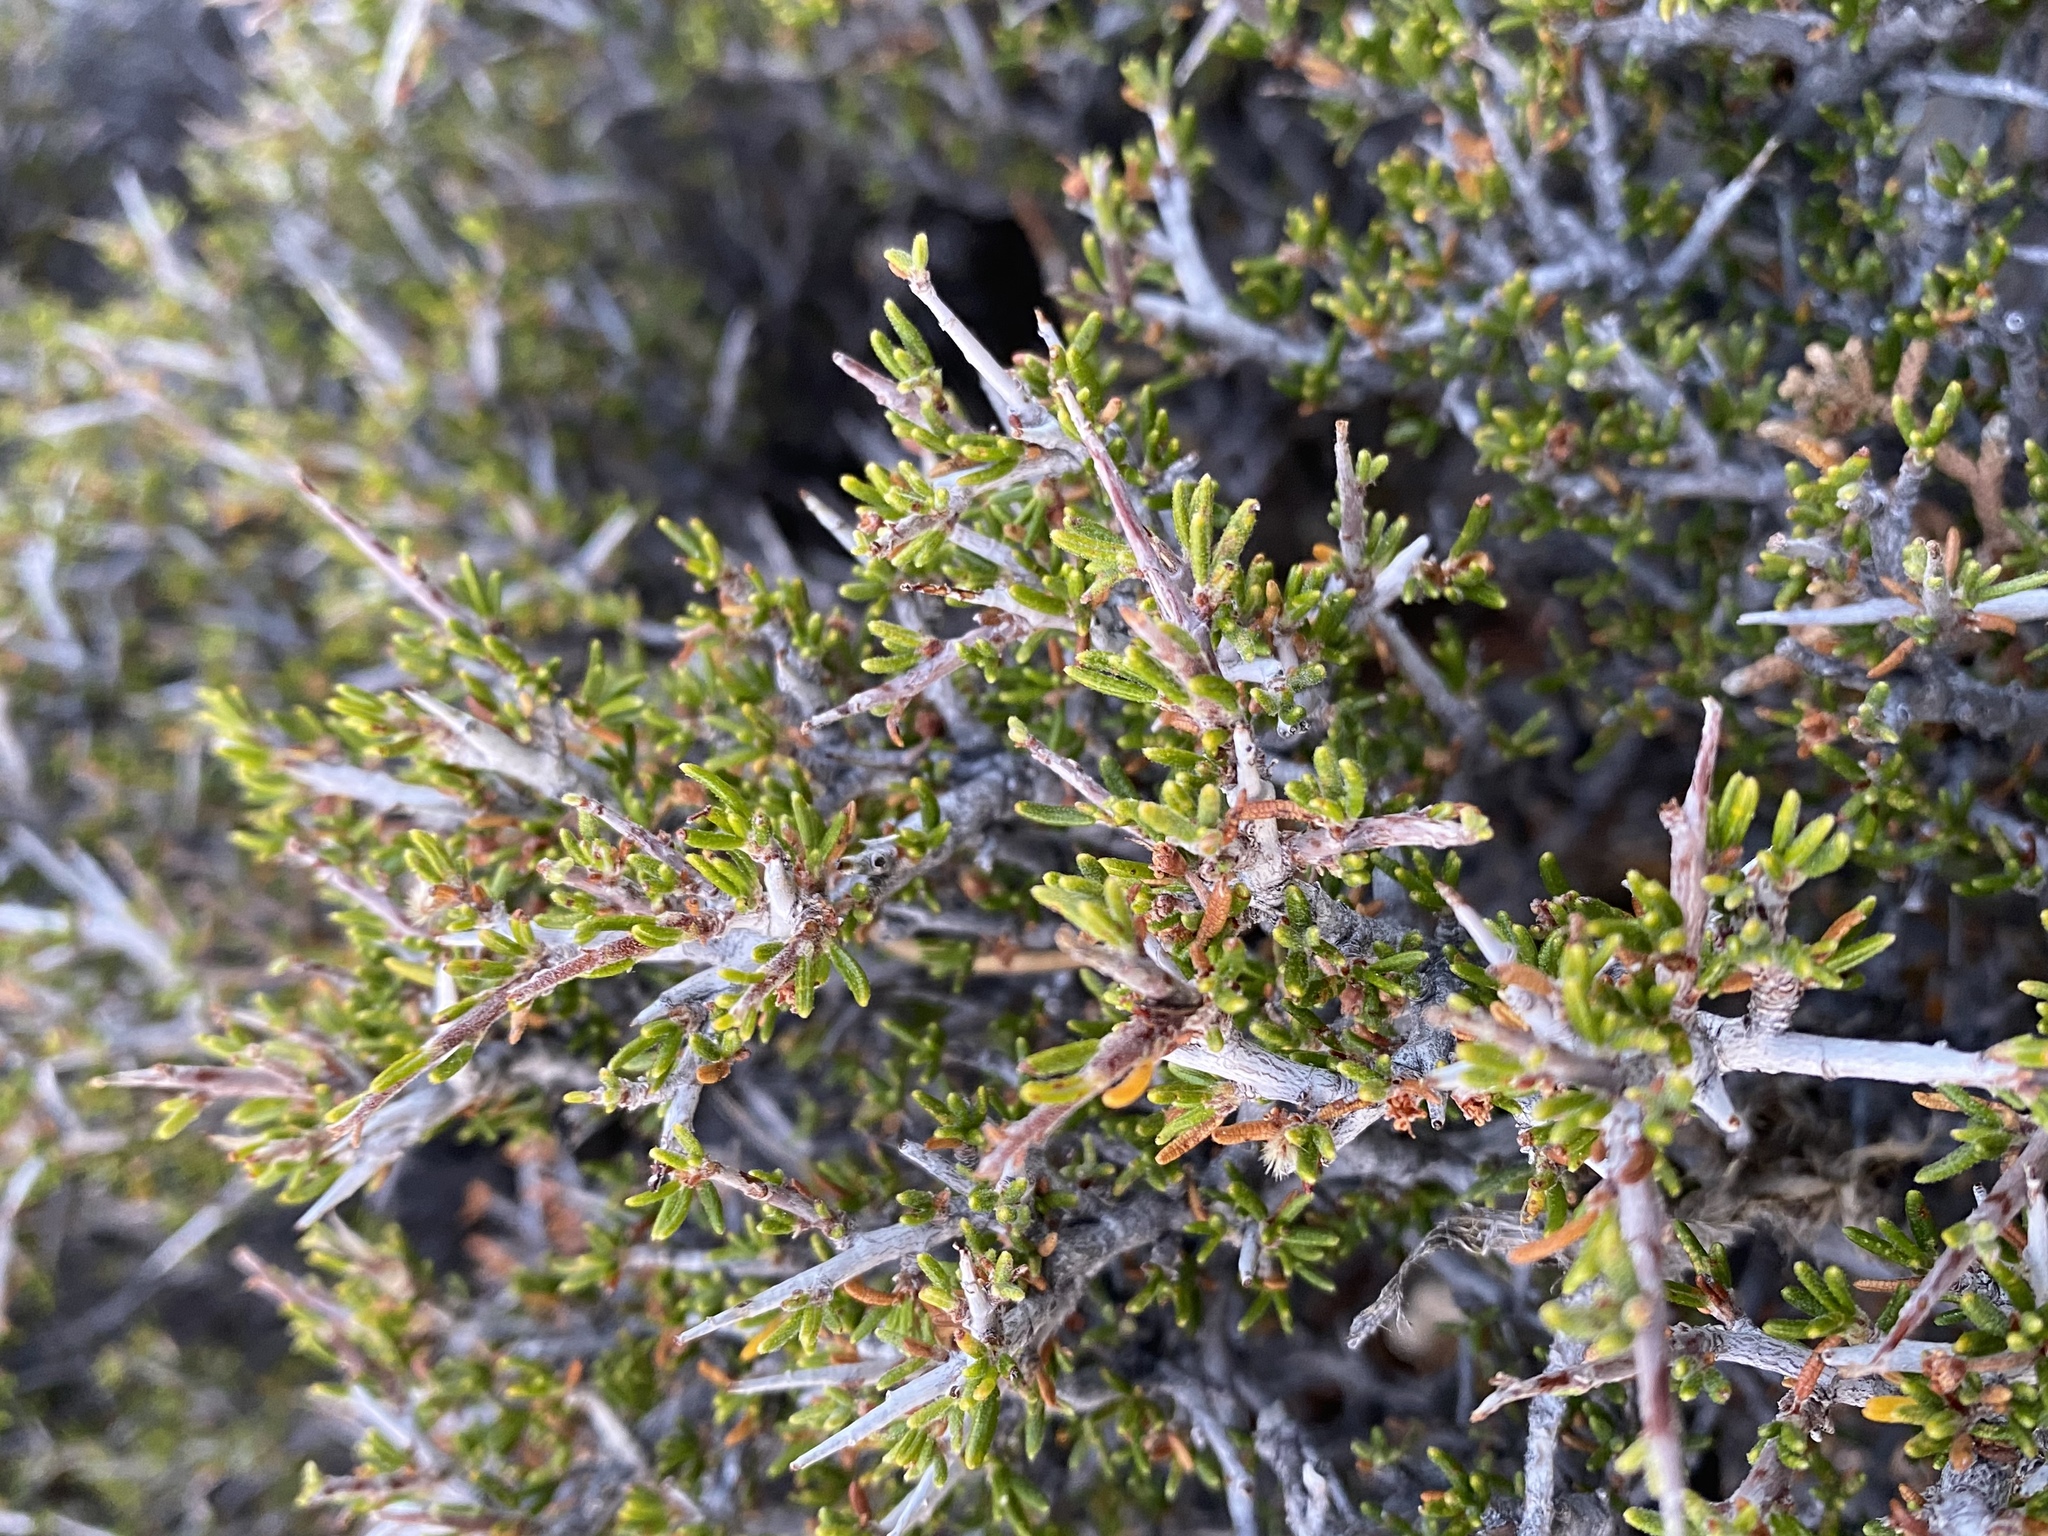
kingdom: Plantae
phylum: Tracheophyta
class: Magnoliopsida
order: Rosales
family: Rosaceae
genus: Cercocarpus
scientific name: Cercocarpus intricatus
